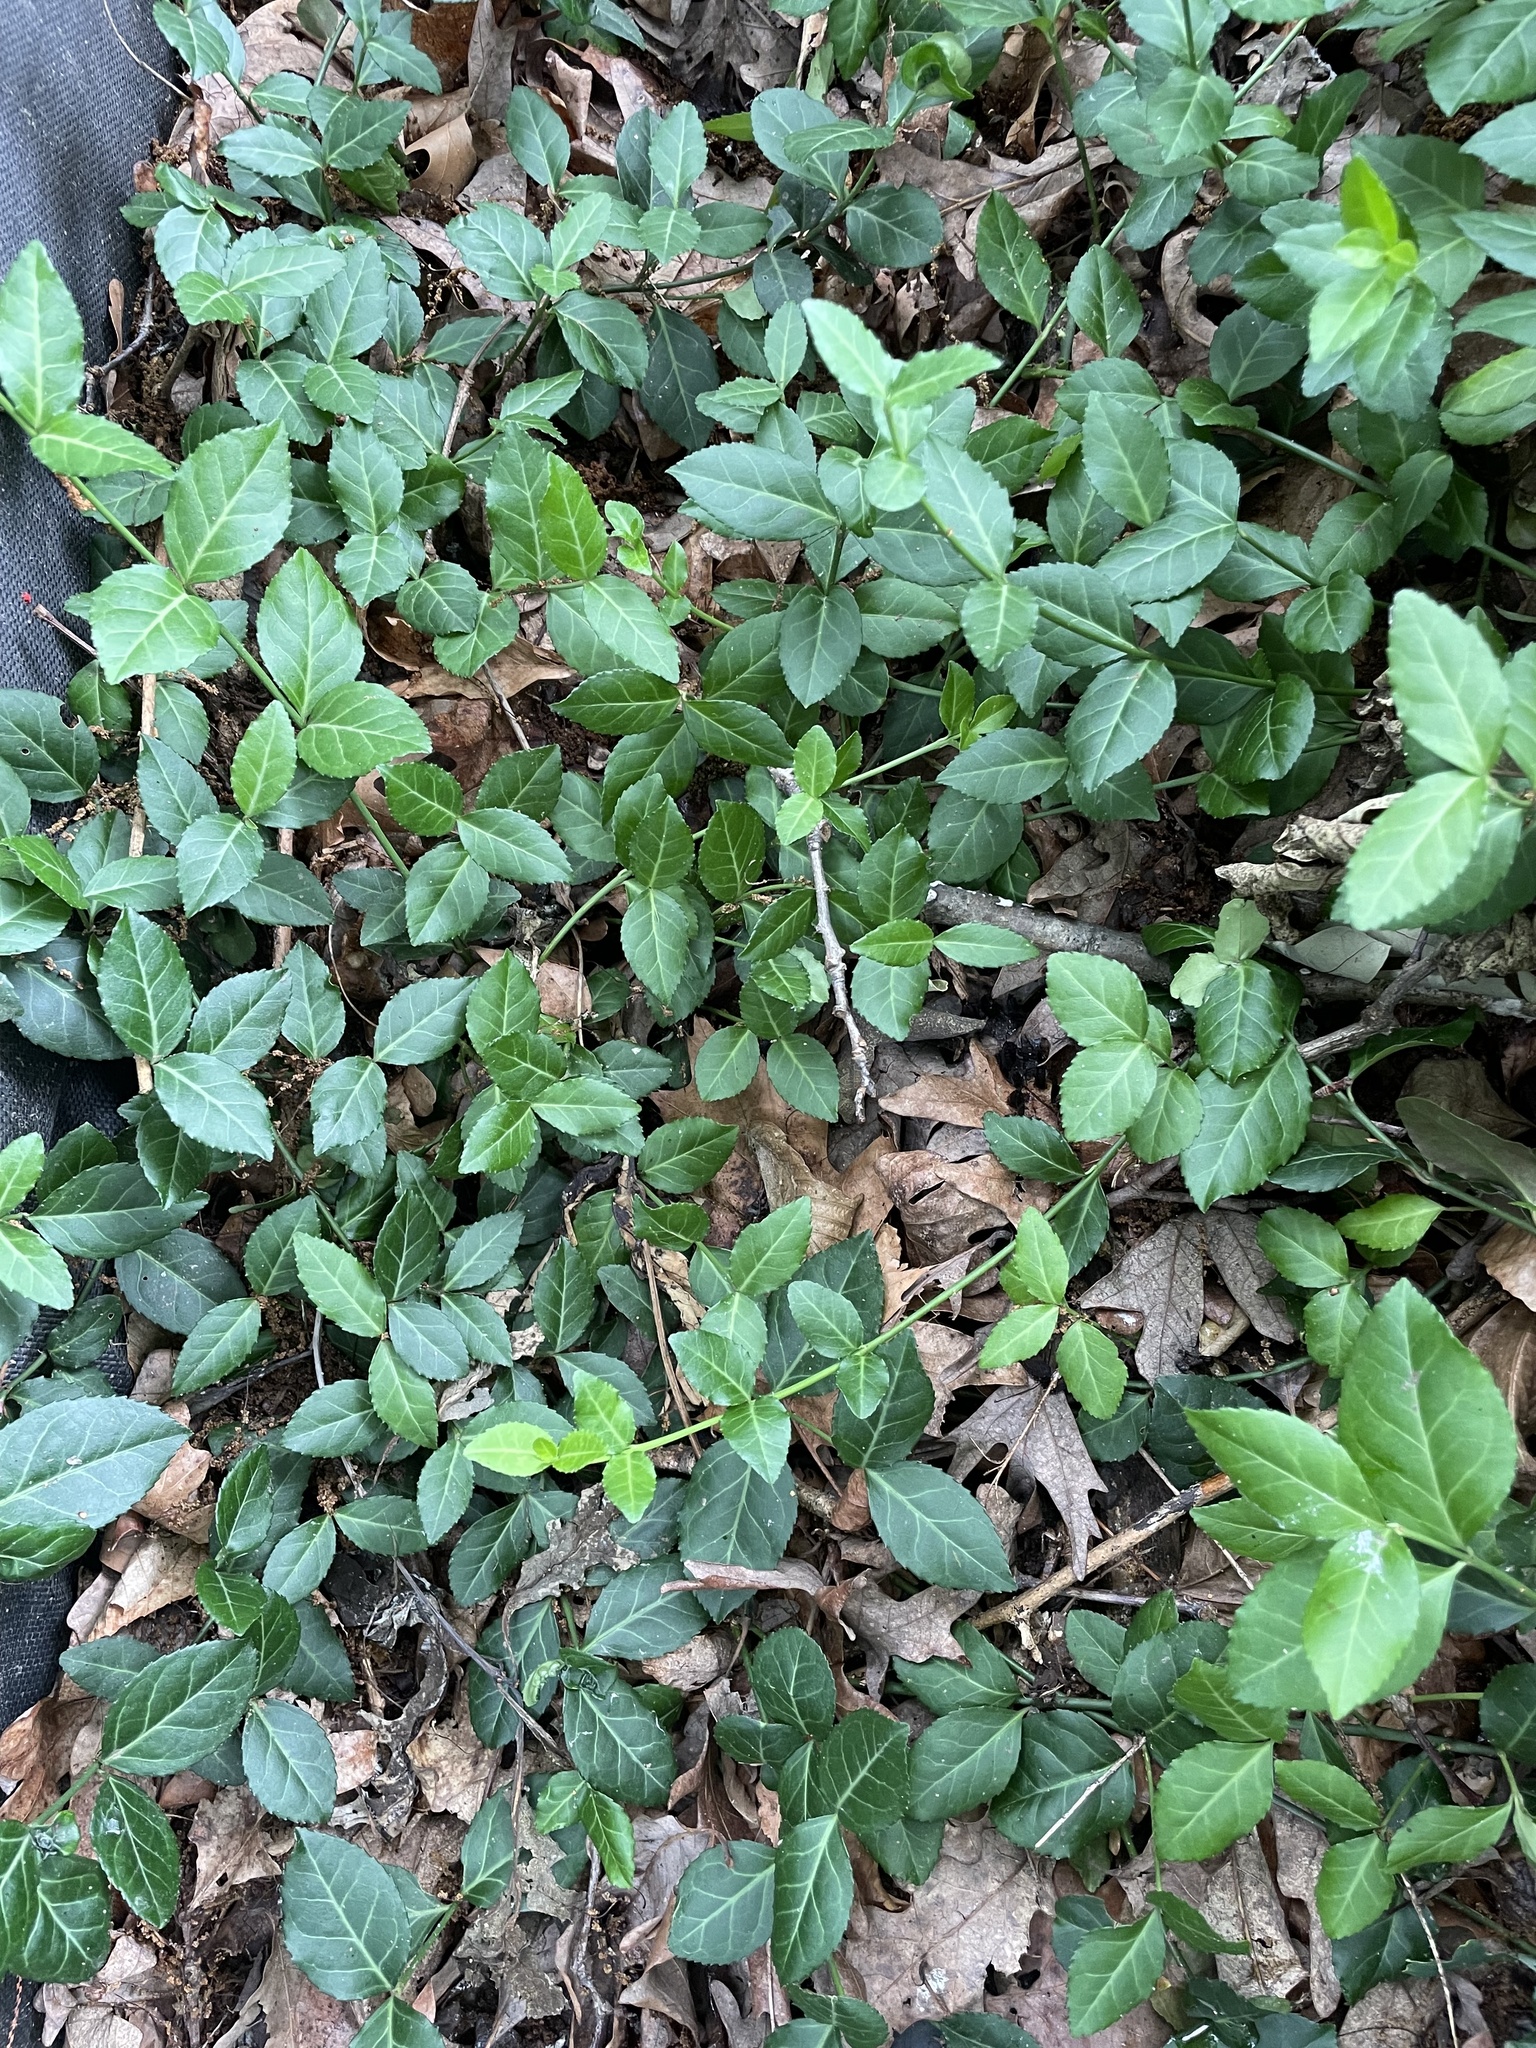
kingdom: Plantae
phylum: Tracheophyta
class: Magnoliopsida
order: Celastrales
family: Celastraceae
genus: Euonymus
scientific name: Euonymus fortunei
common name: Climbing euonymus
